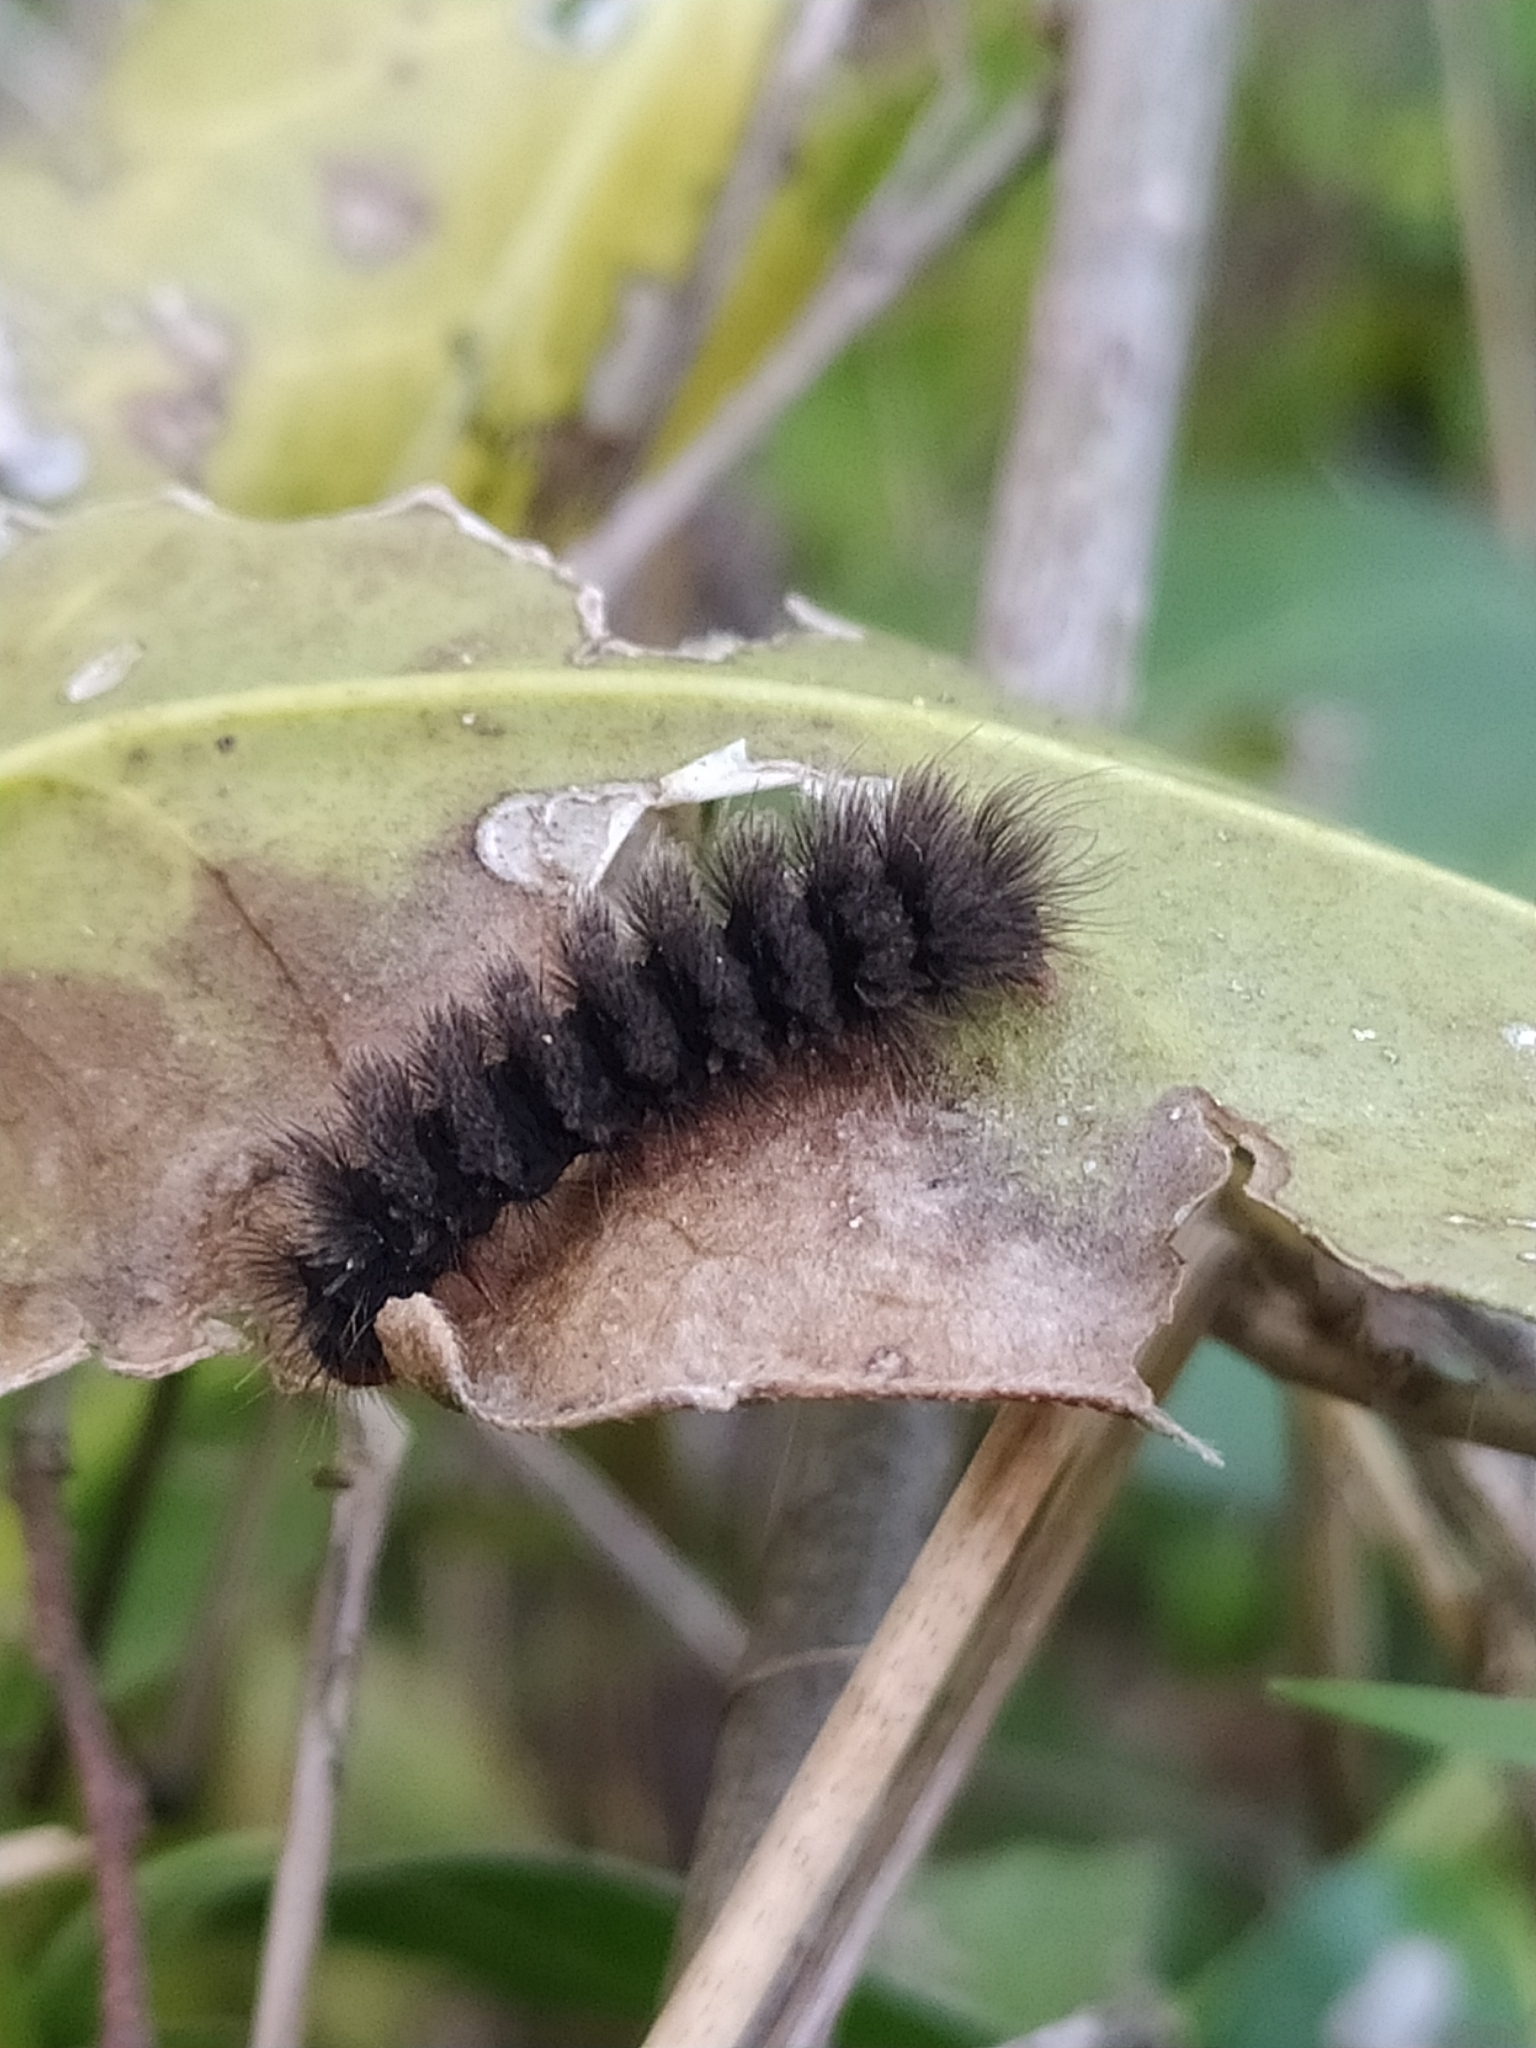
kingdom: Animalia
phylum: Arthropoda
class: Insecta
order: Lepidoptera
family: Erebidae
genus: Amata
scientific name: Amata phegea
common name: Nine-spotted
